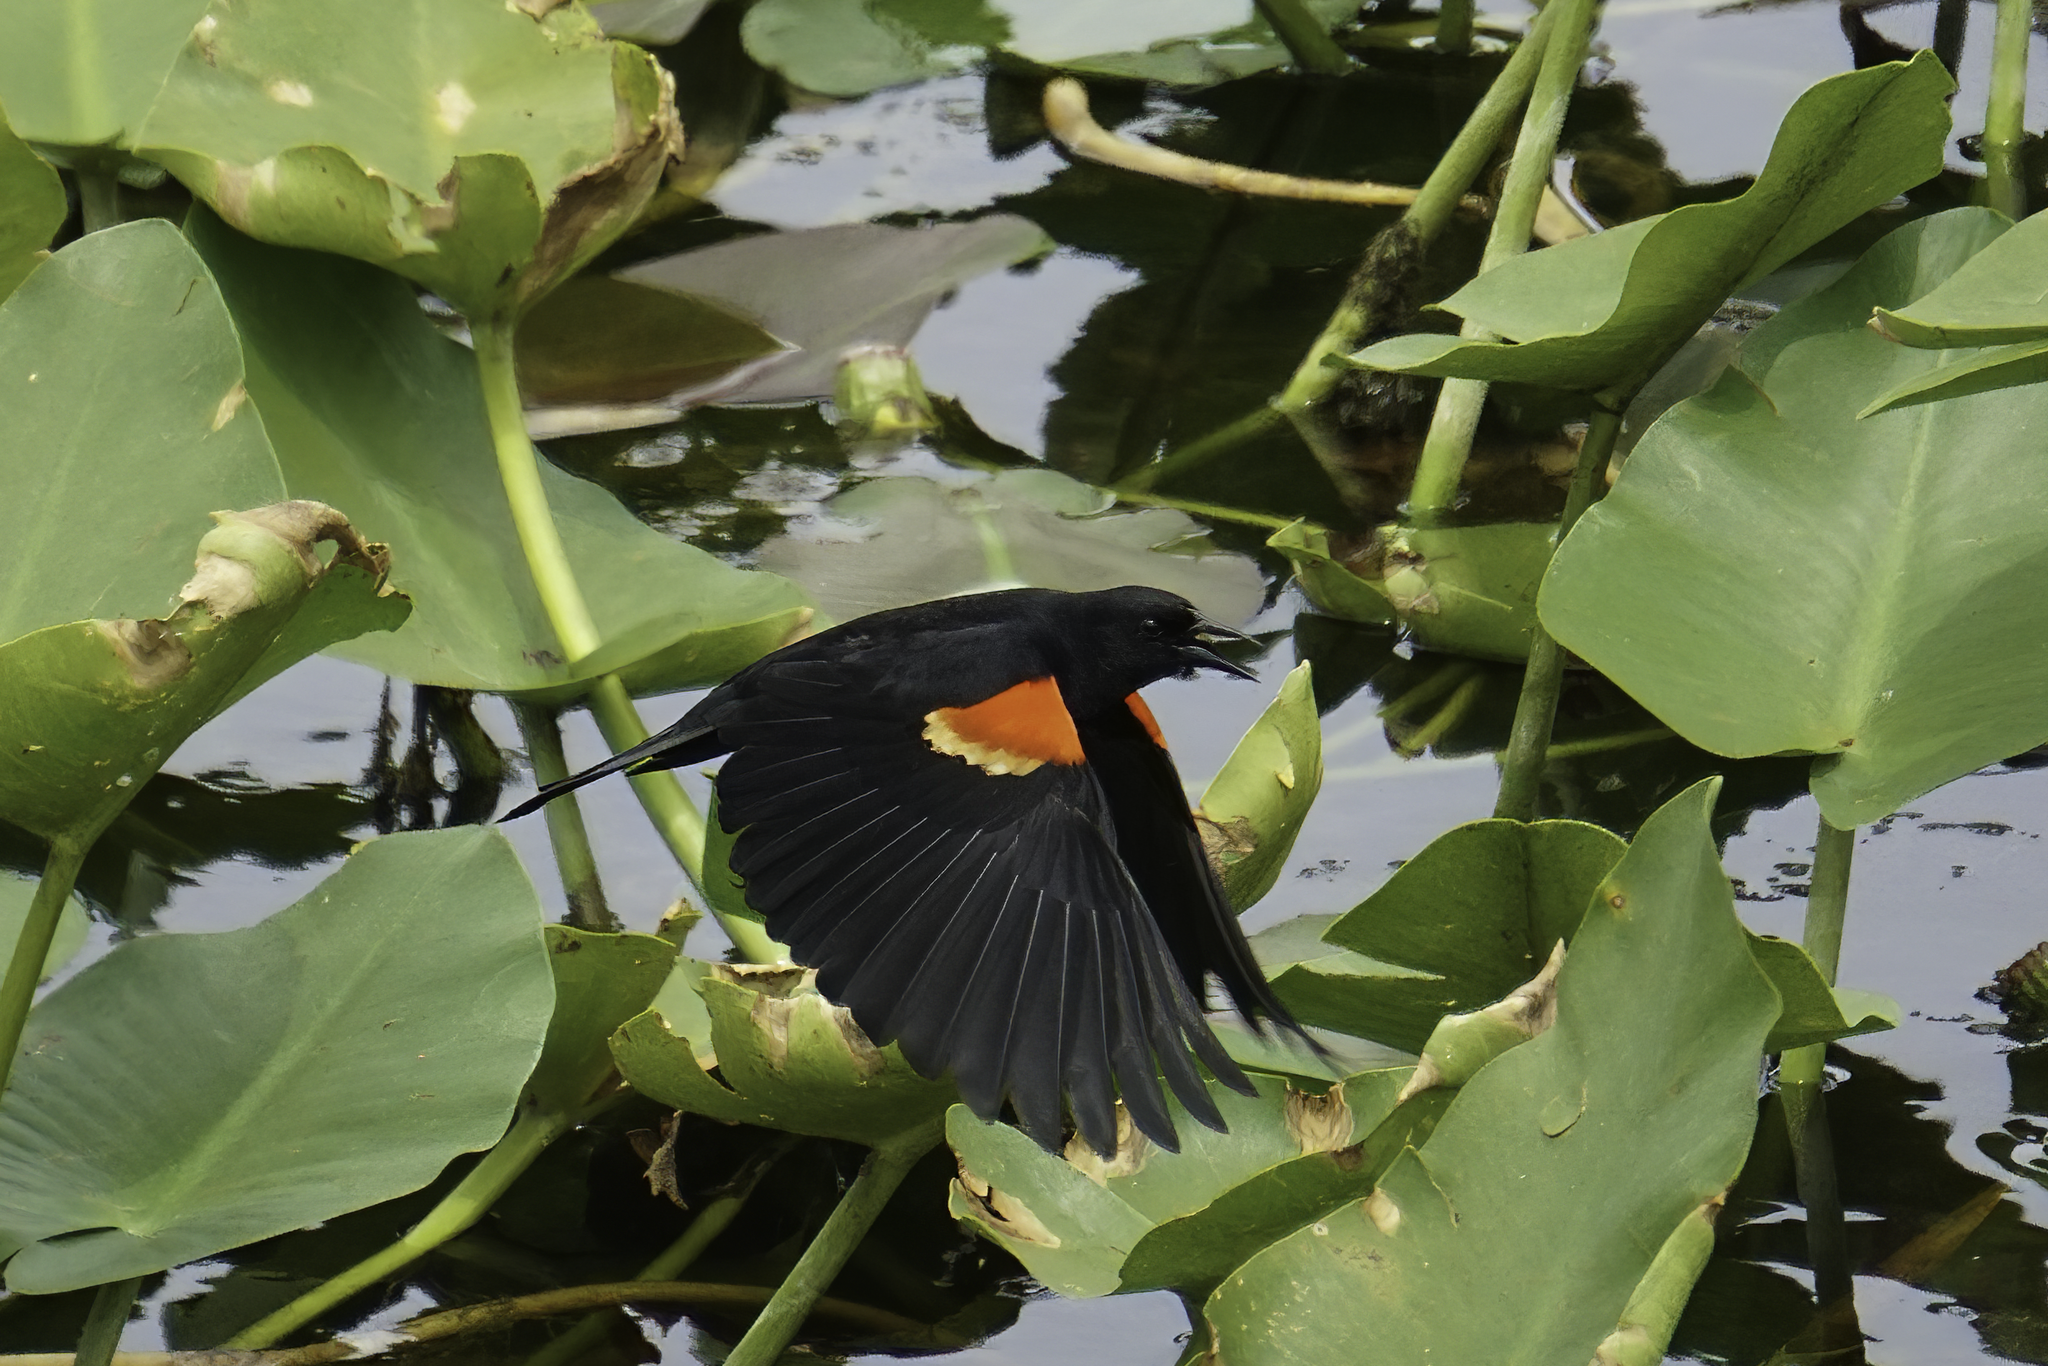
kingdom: Animalia
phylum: Chordata
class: Aves
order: Passeriformes
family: Icteridae
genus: Agelaius
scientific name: Agelaius phoeniceus
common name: Red-winged blackbird
